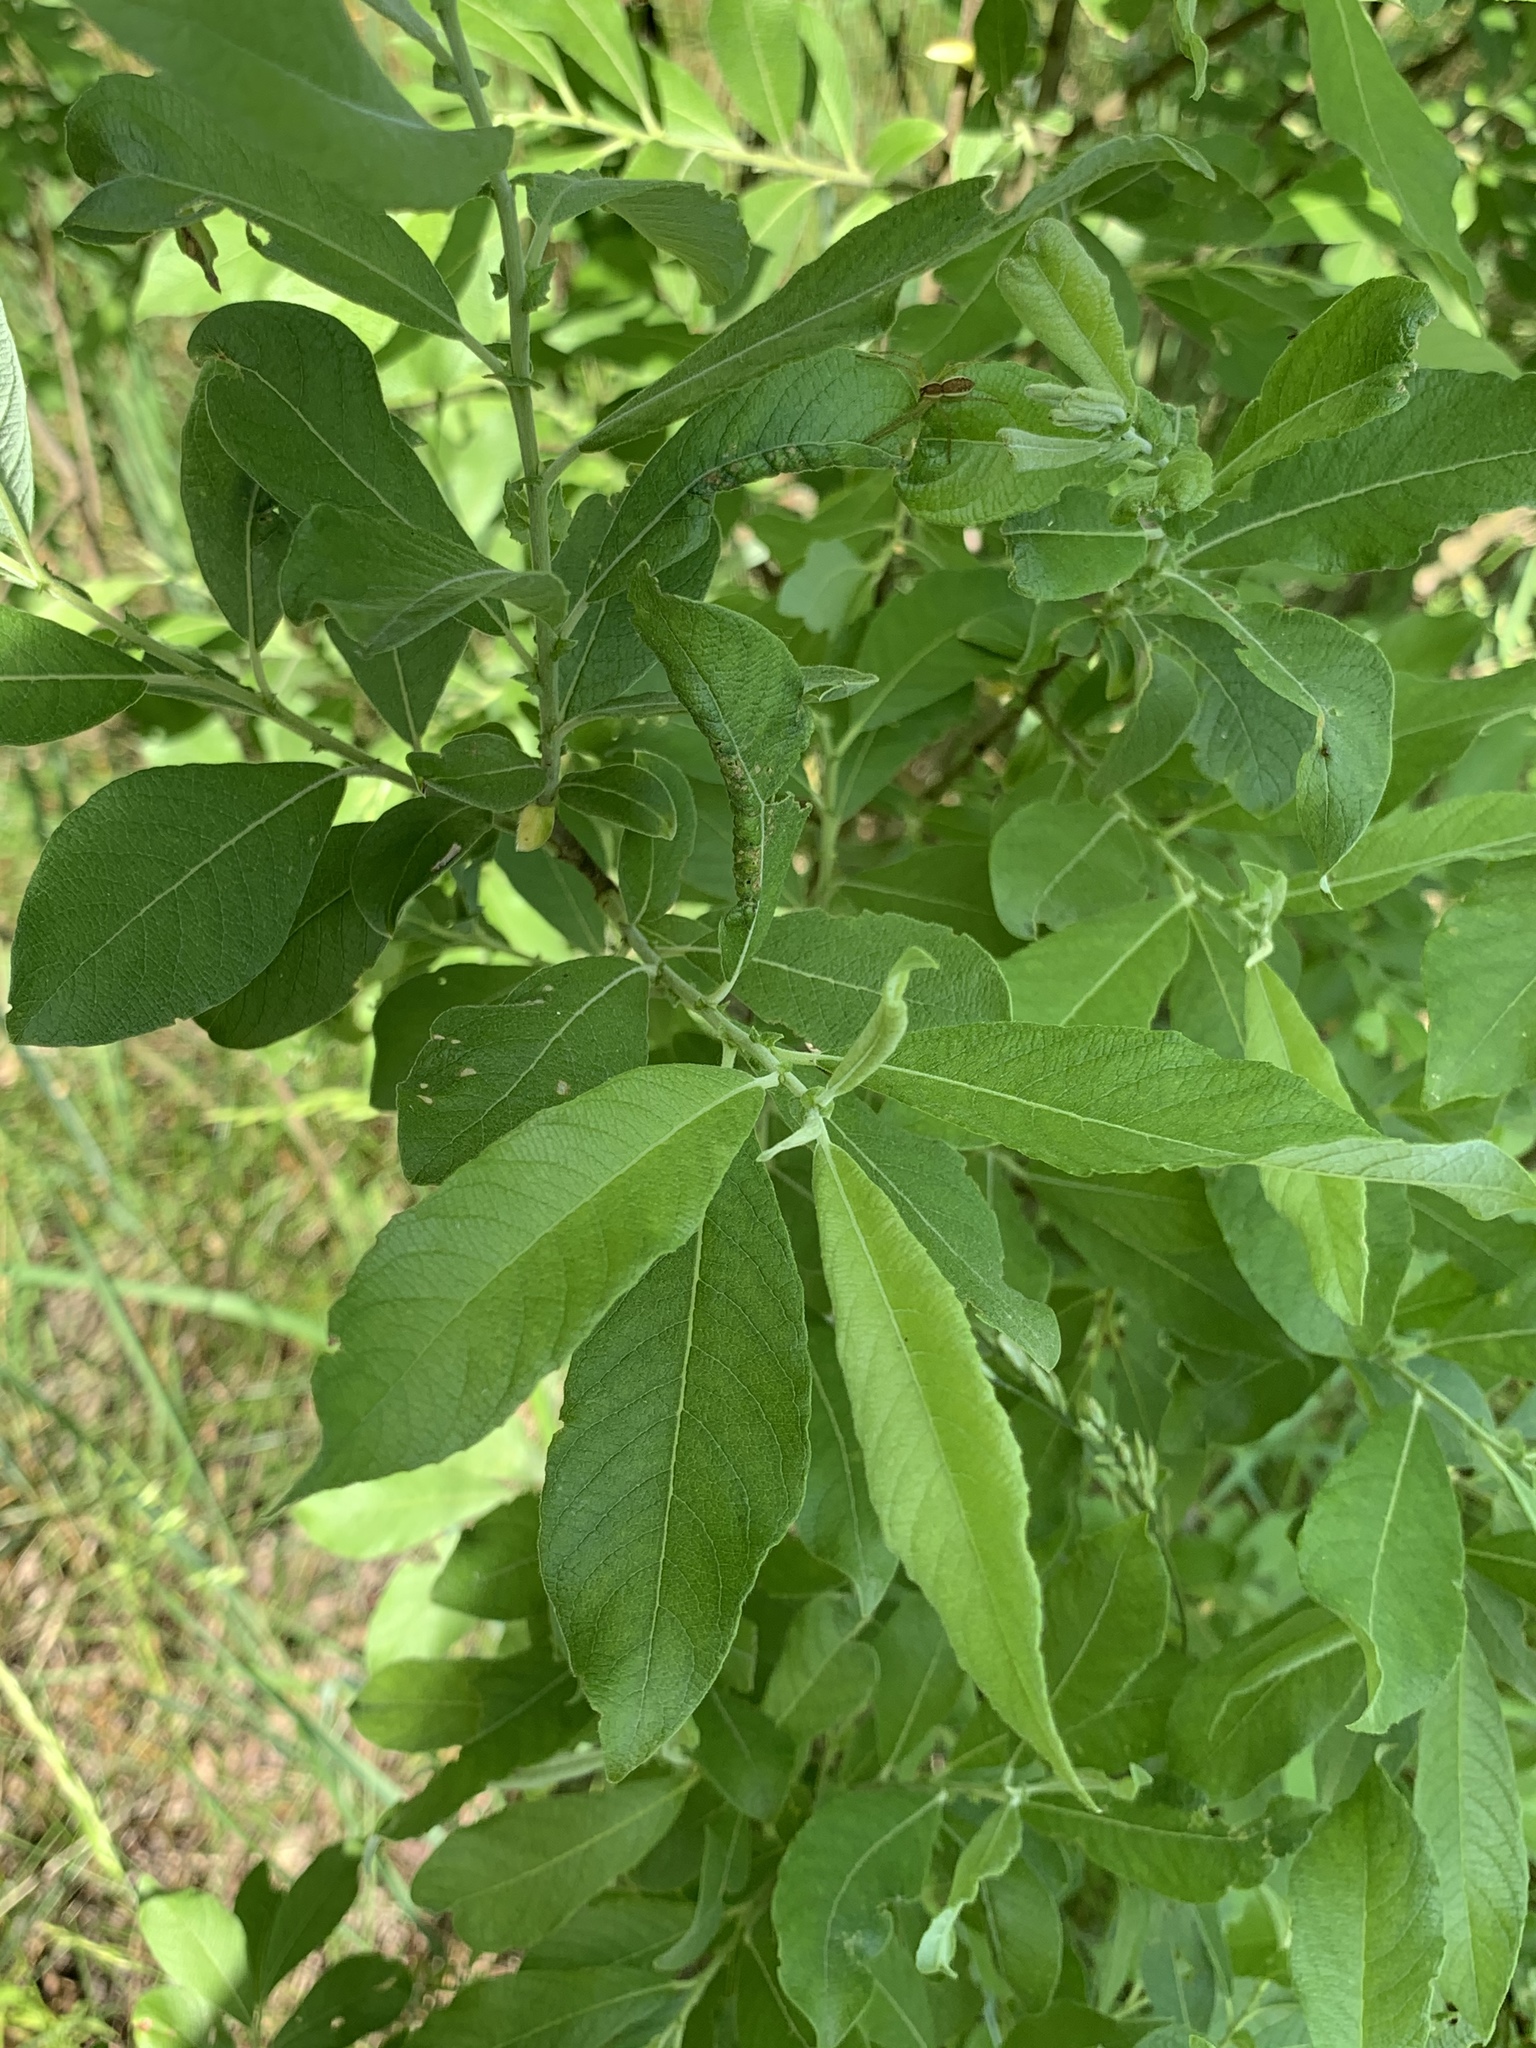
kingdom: Plantae
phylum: Tracheophyta
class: Magnoliopsida
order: Malpighiales
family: Salicaceae
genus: Salix
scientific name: Salix cinerea
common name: Common sallow
